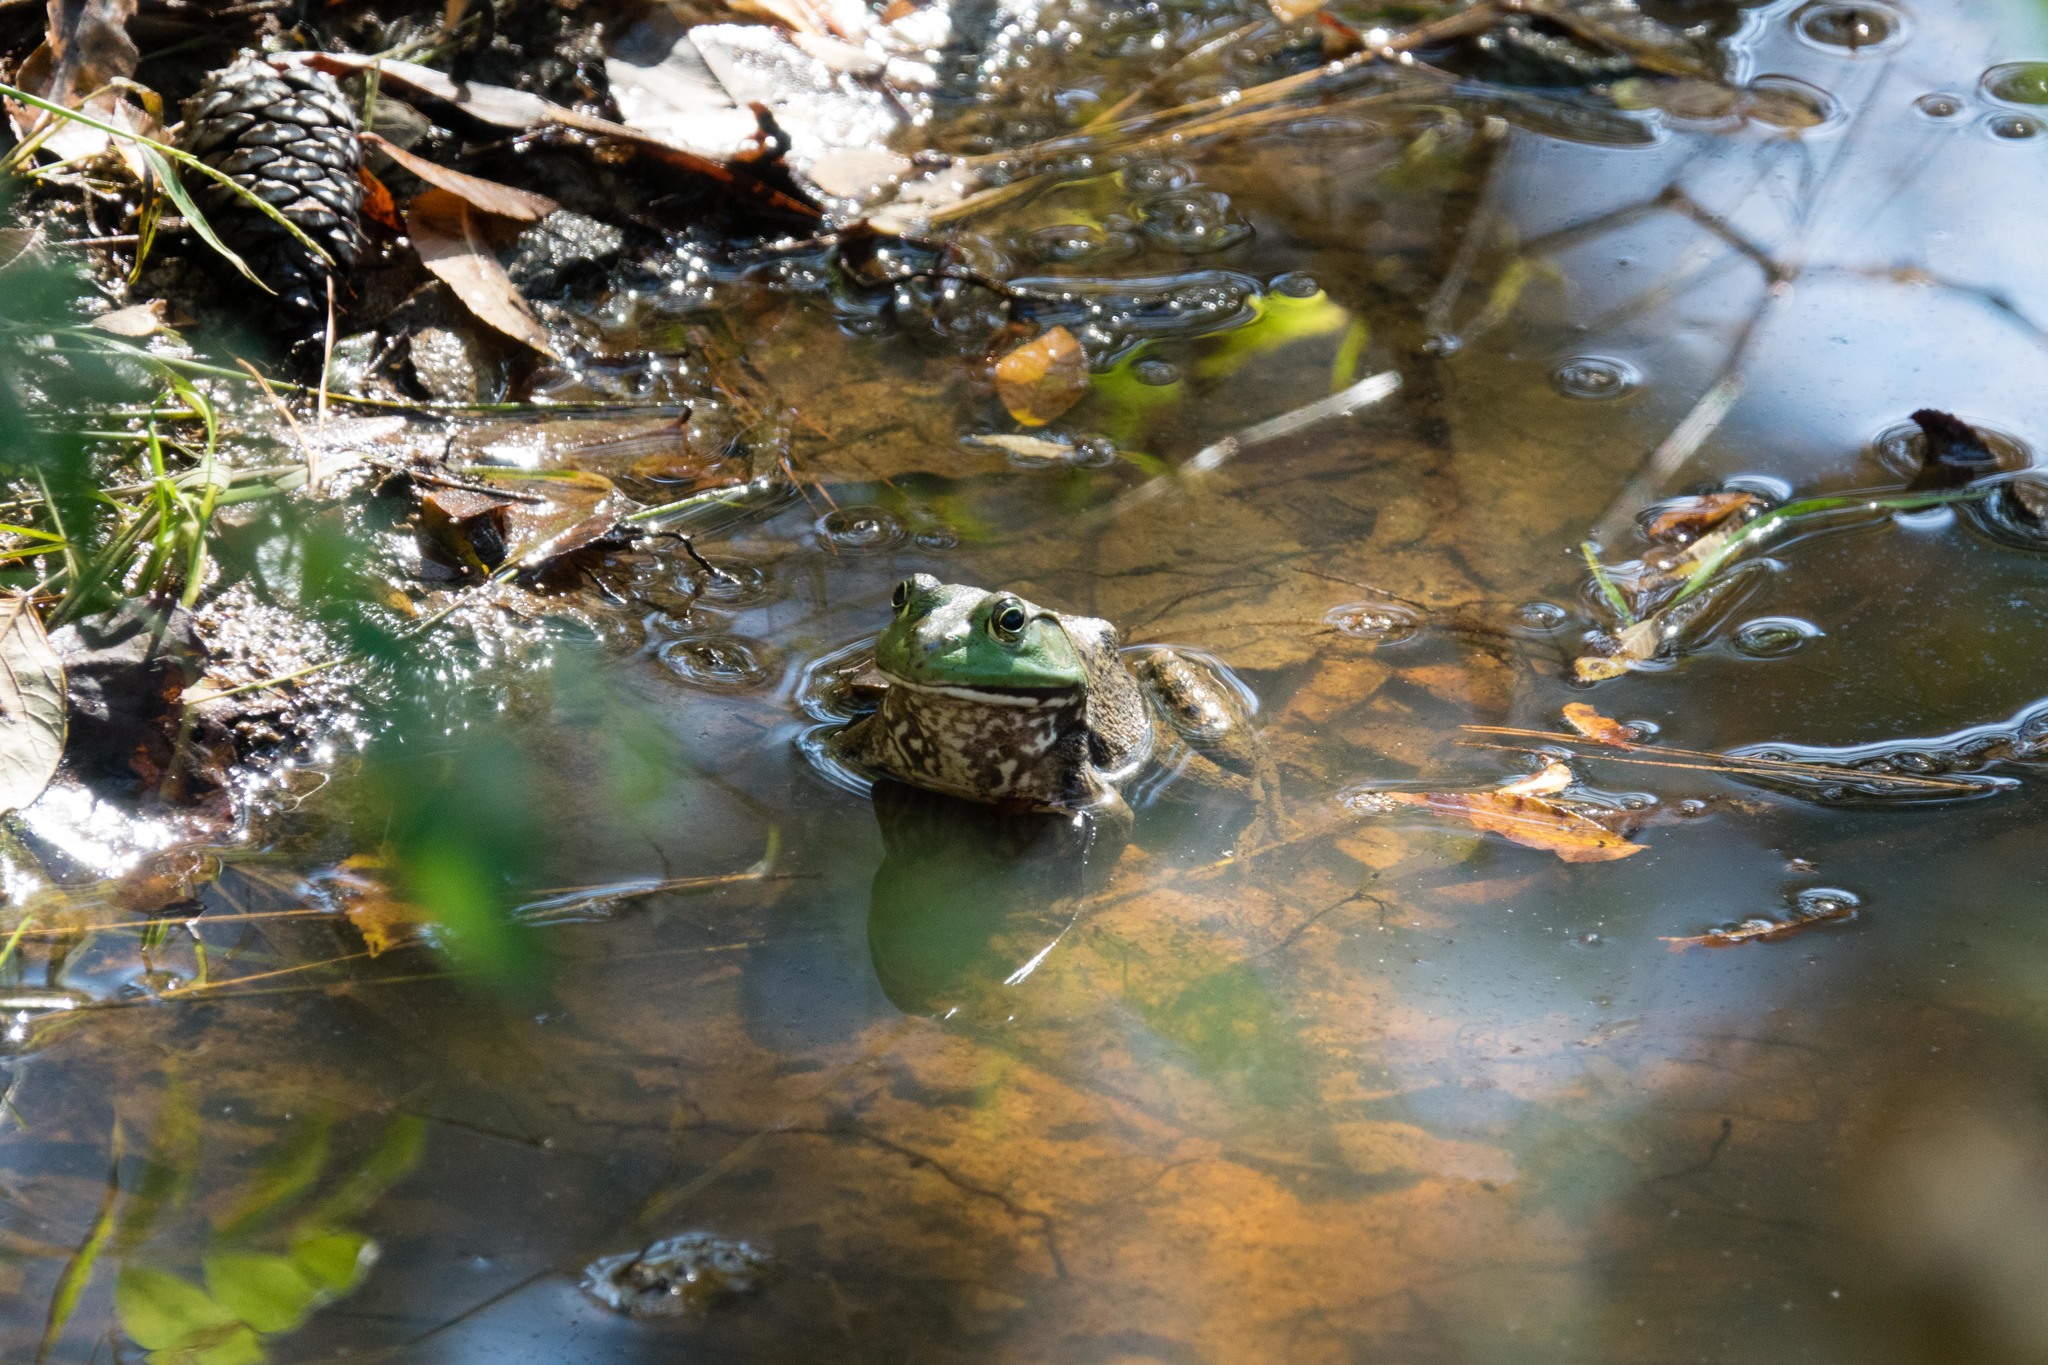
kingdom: Animalia
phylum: Chordata
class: Amphibia
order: Anura
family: Ranidae
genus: Lithobates
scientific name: Lithobates catesbeianus
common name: American bullfrog
